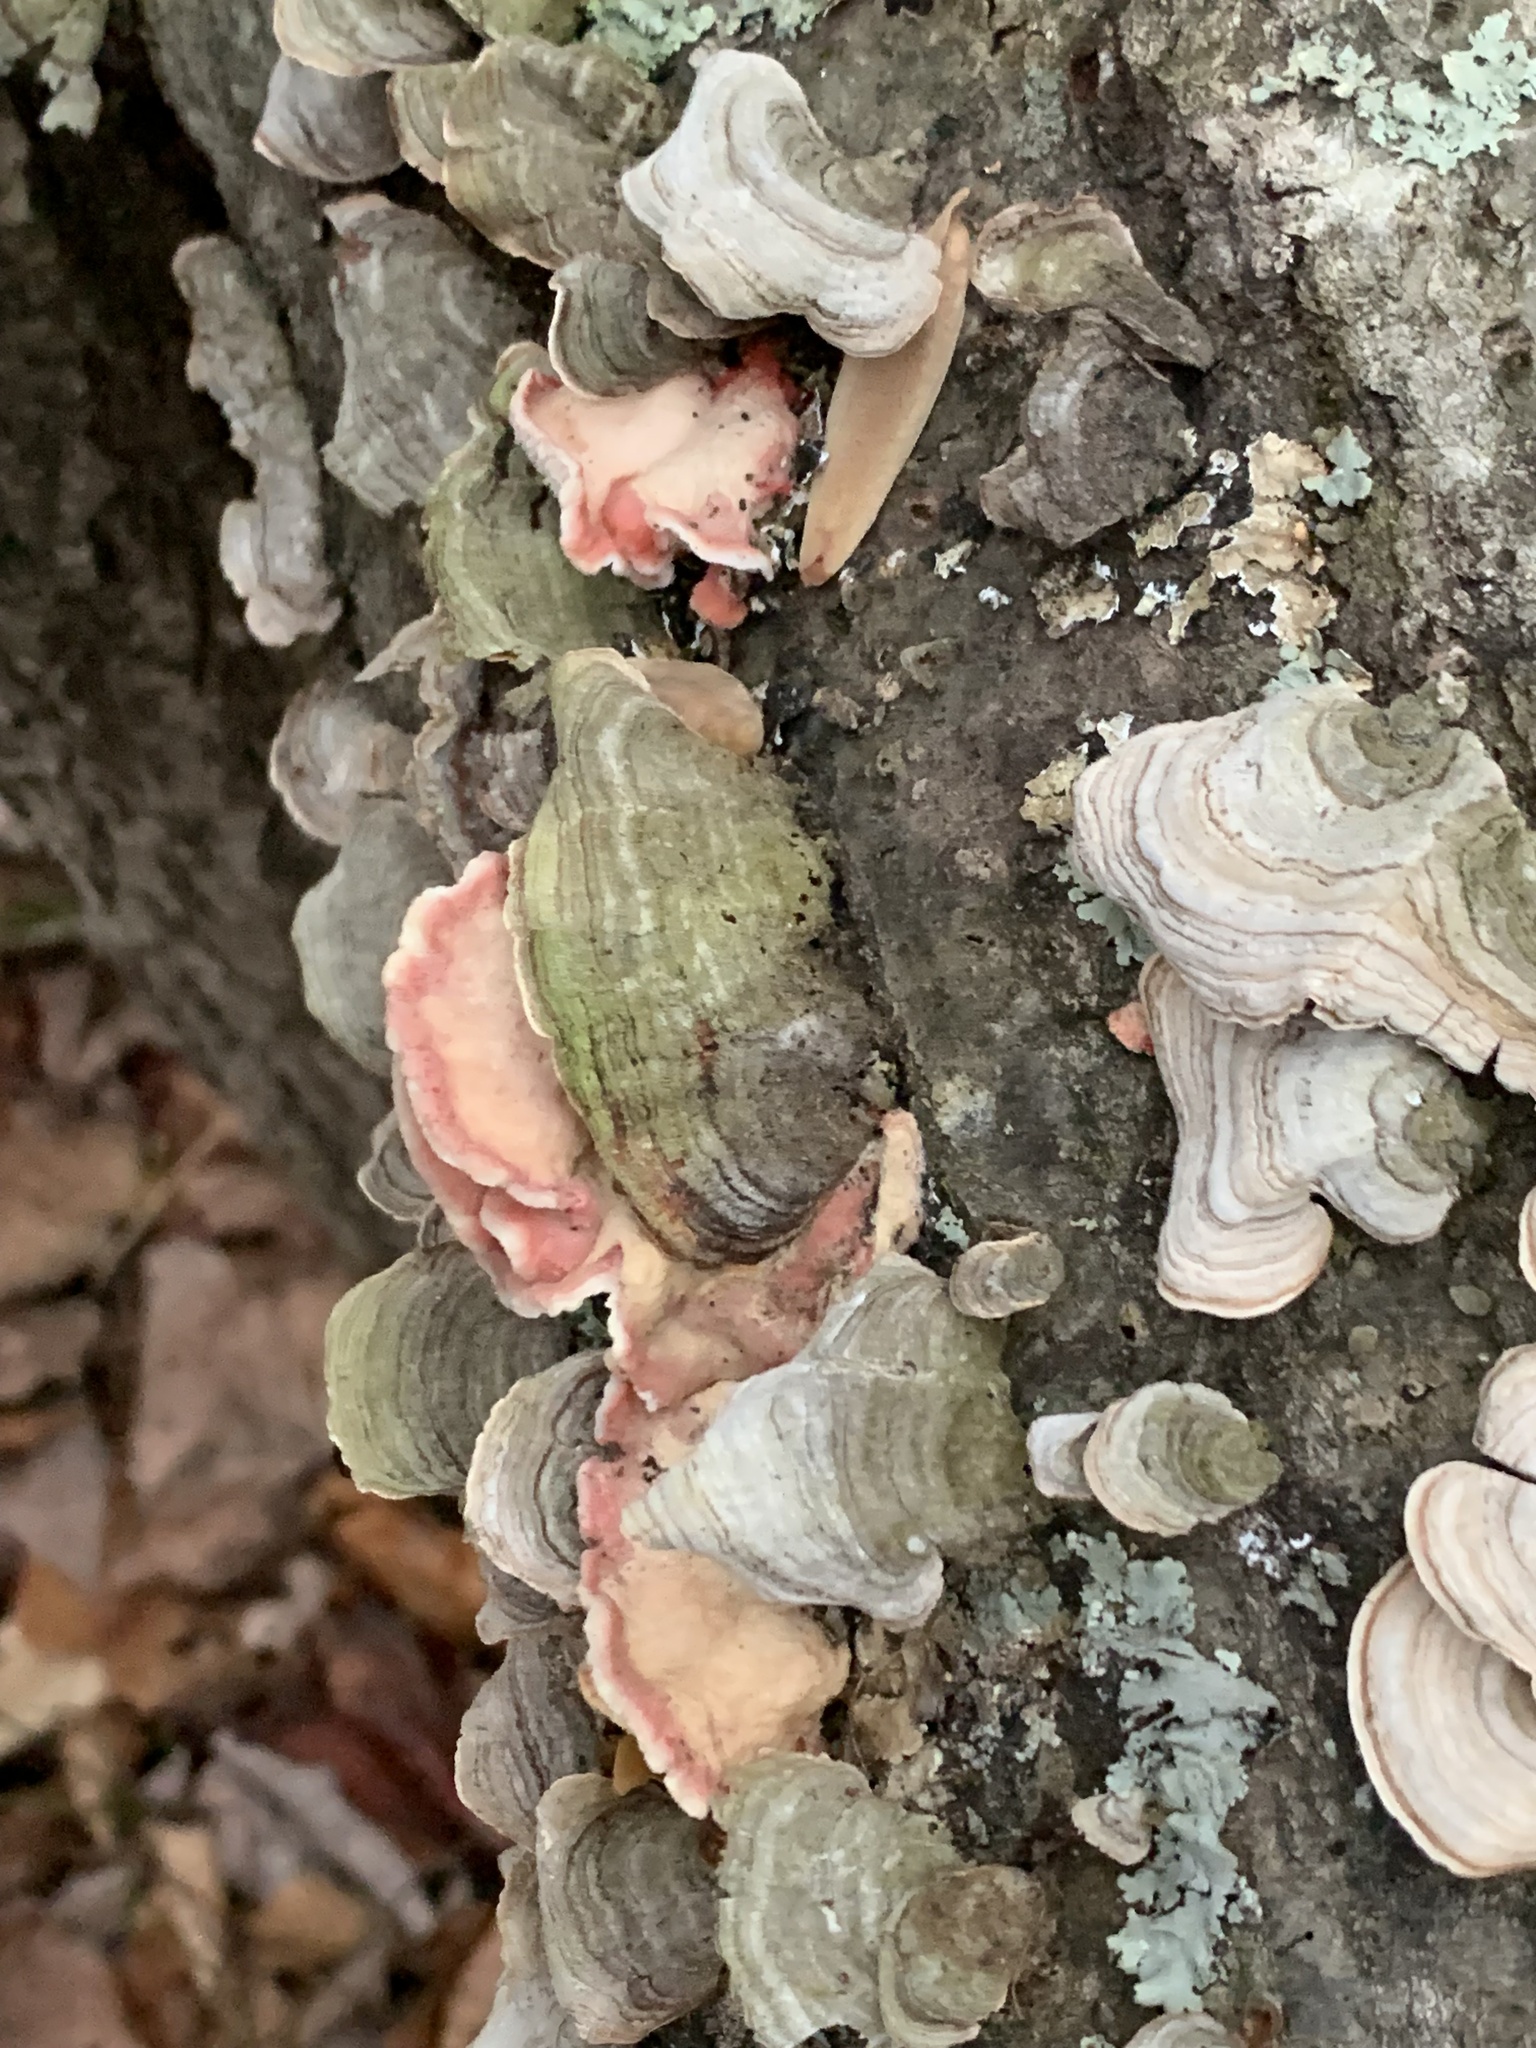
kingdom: Fungi
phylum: Basidiomycota
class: Agaricomycetes
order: Polyporales
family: Irpicaceae
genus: Byssomerulius
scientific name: Byssomerulius incarnatus
